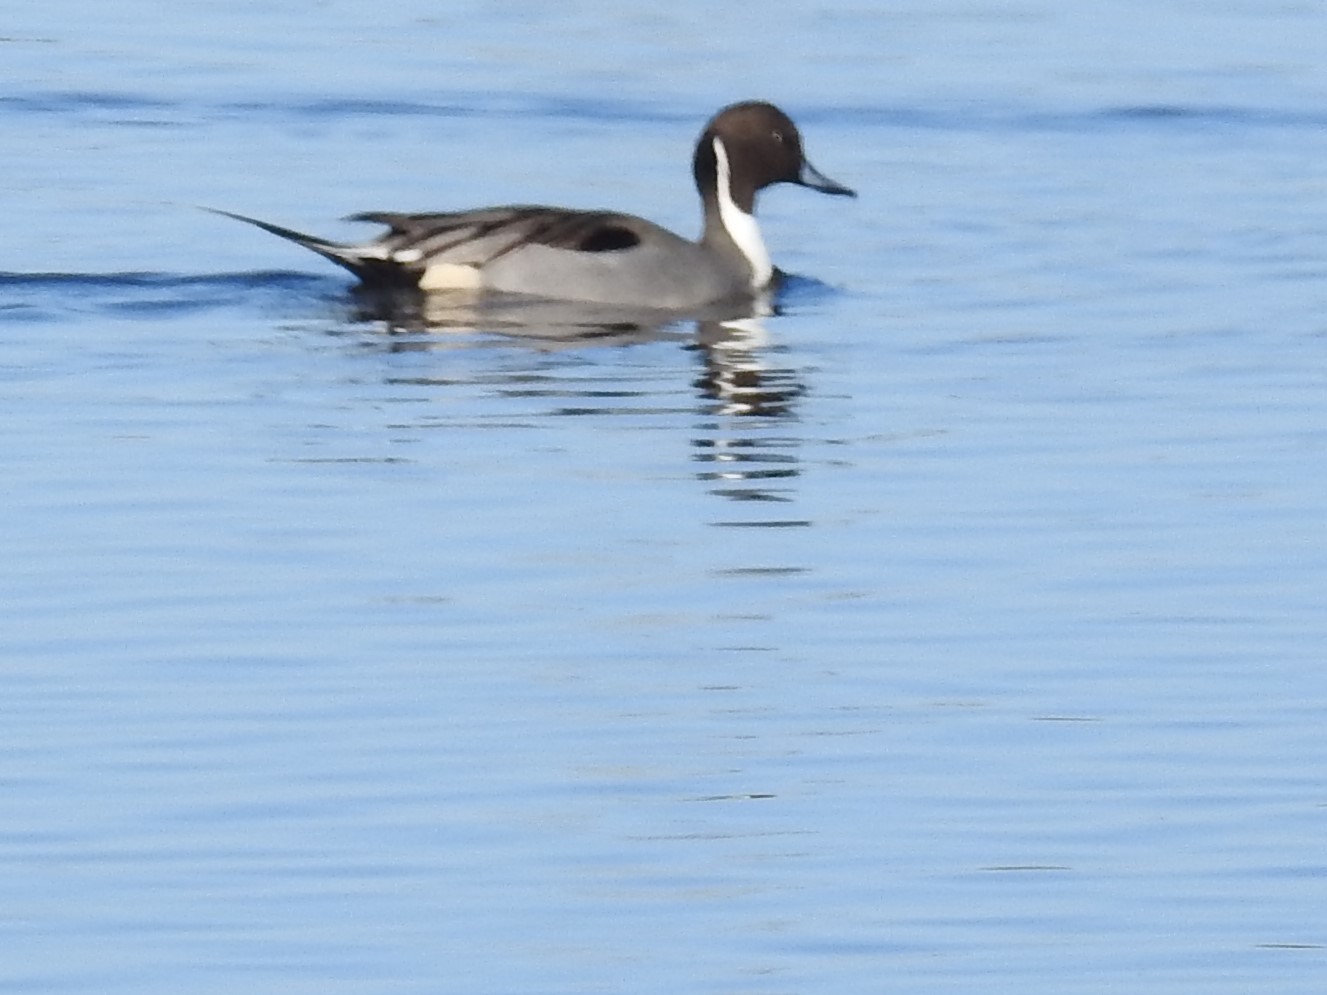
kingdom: Animalia
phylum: Chordata
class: Aves
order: Anseriformes
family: Anatidae
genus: Anas
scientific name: Anas acuta
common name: Northern pintail
